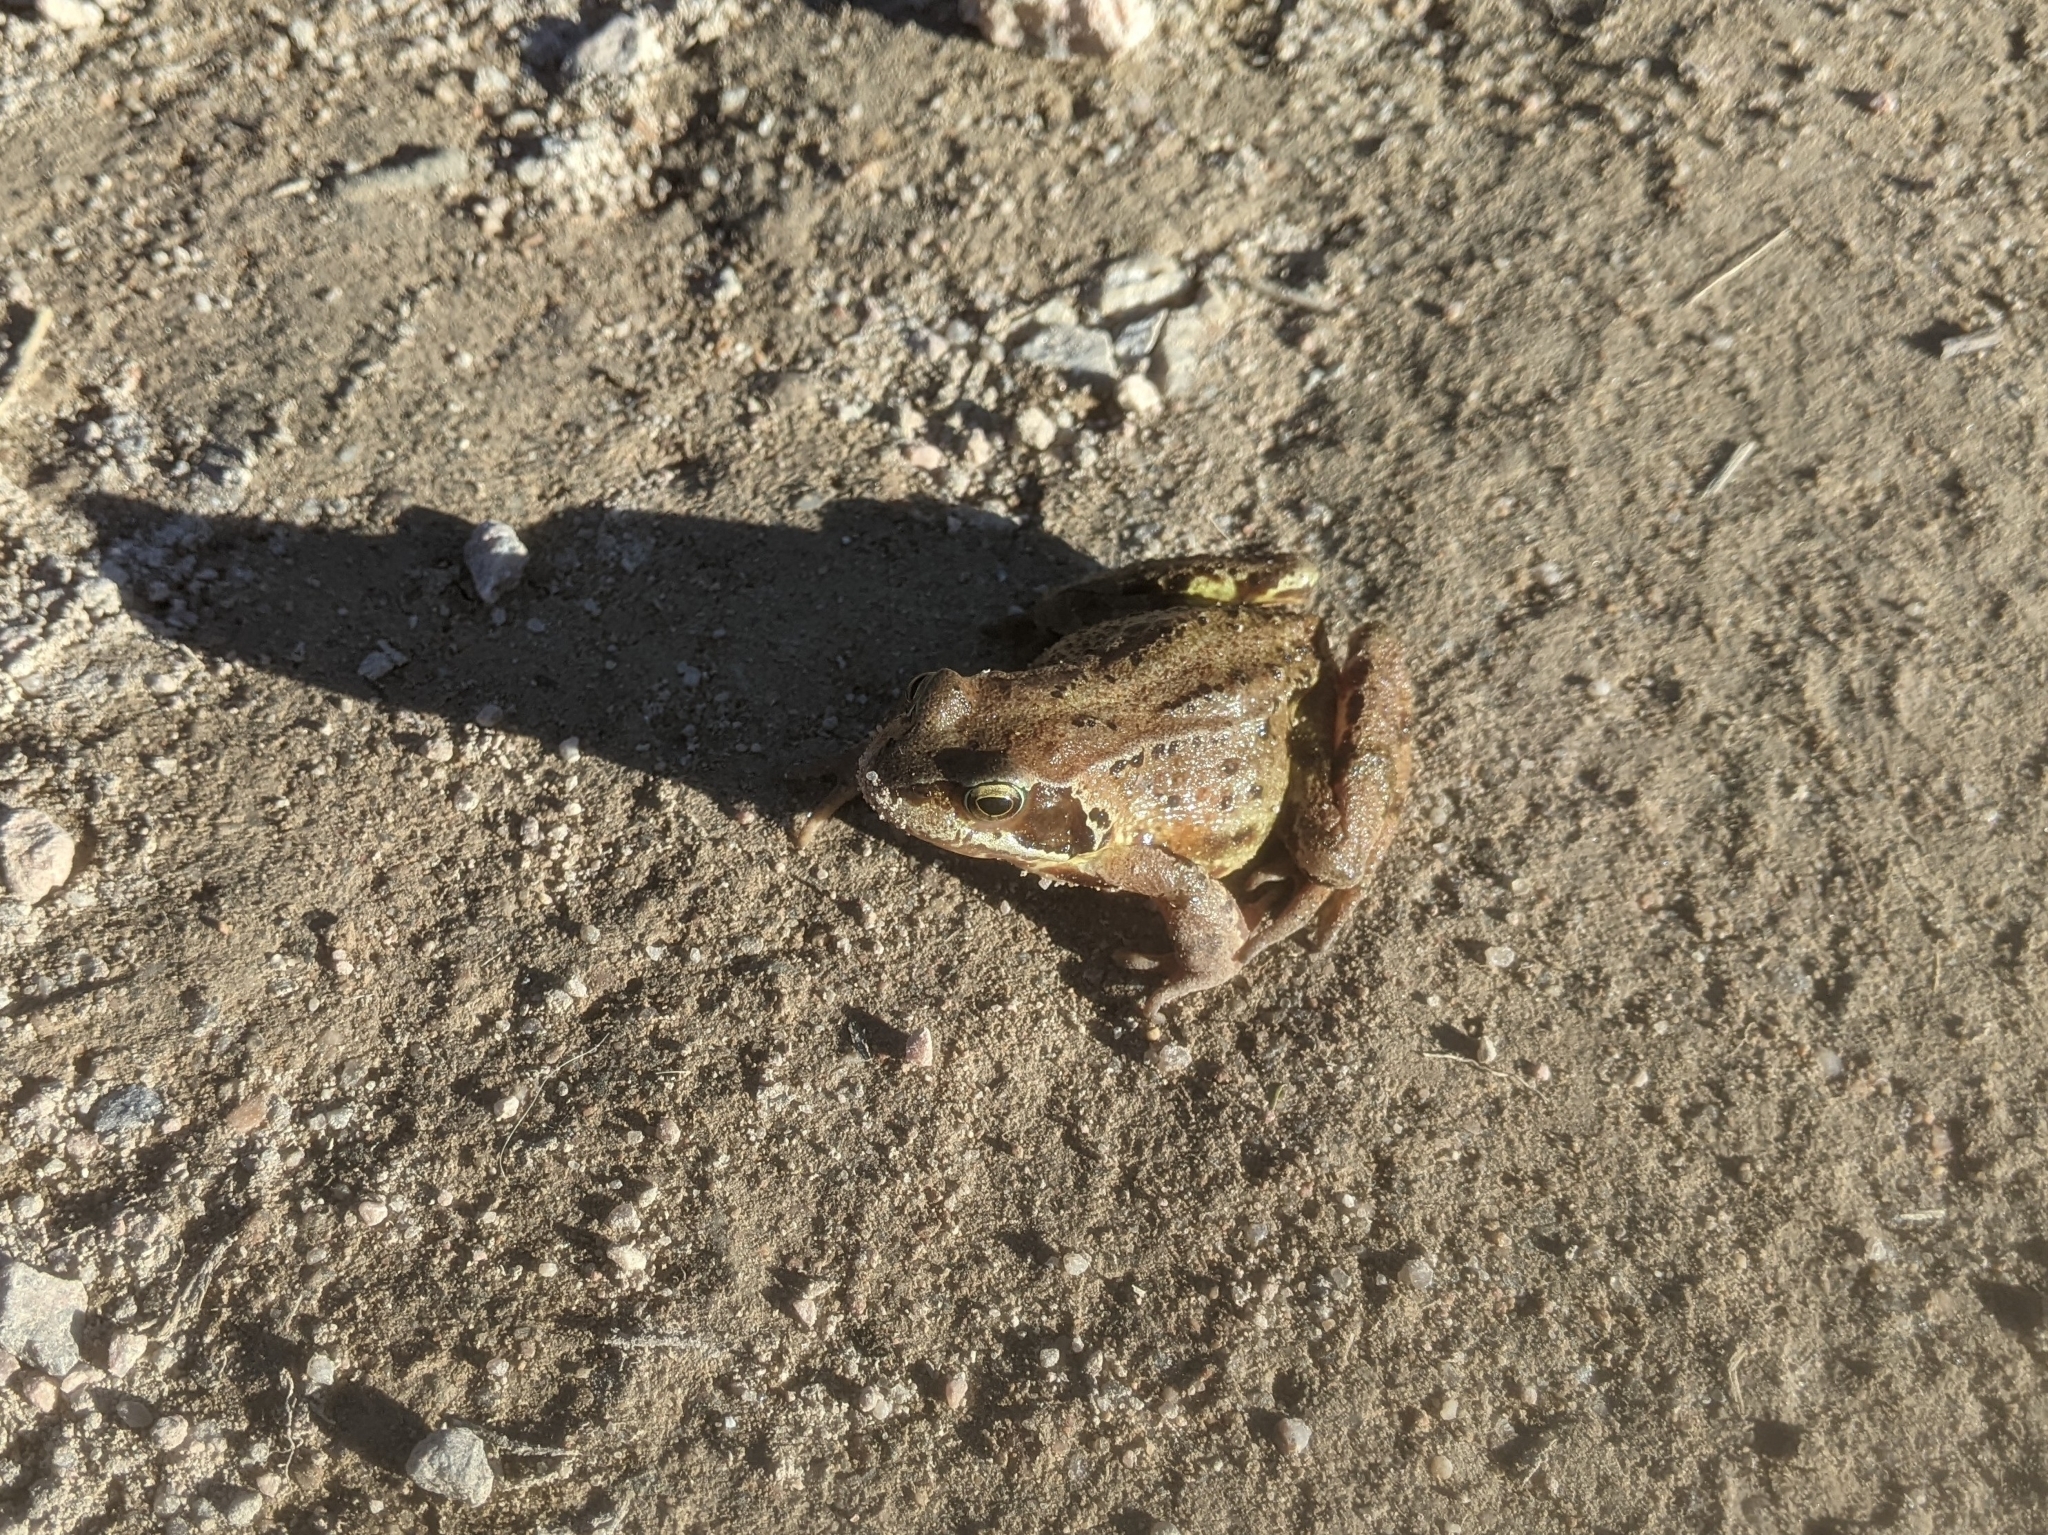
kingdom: Animalia
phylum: Chordata
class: Amphibia
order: Anura
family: Ranidae
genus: Rana
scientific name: Rana temporaria
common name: Common frog
